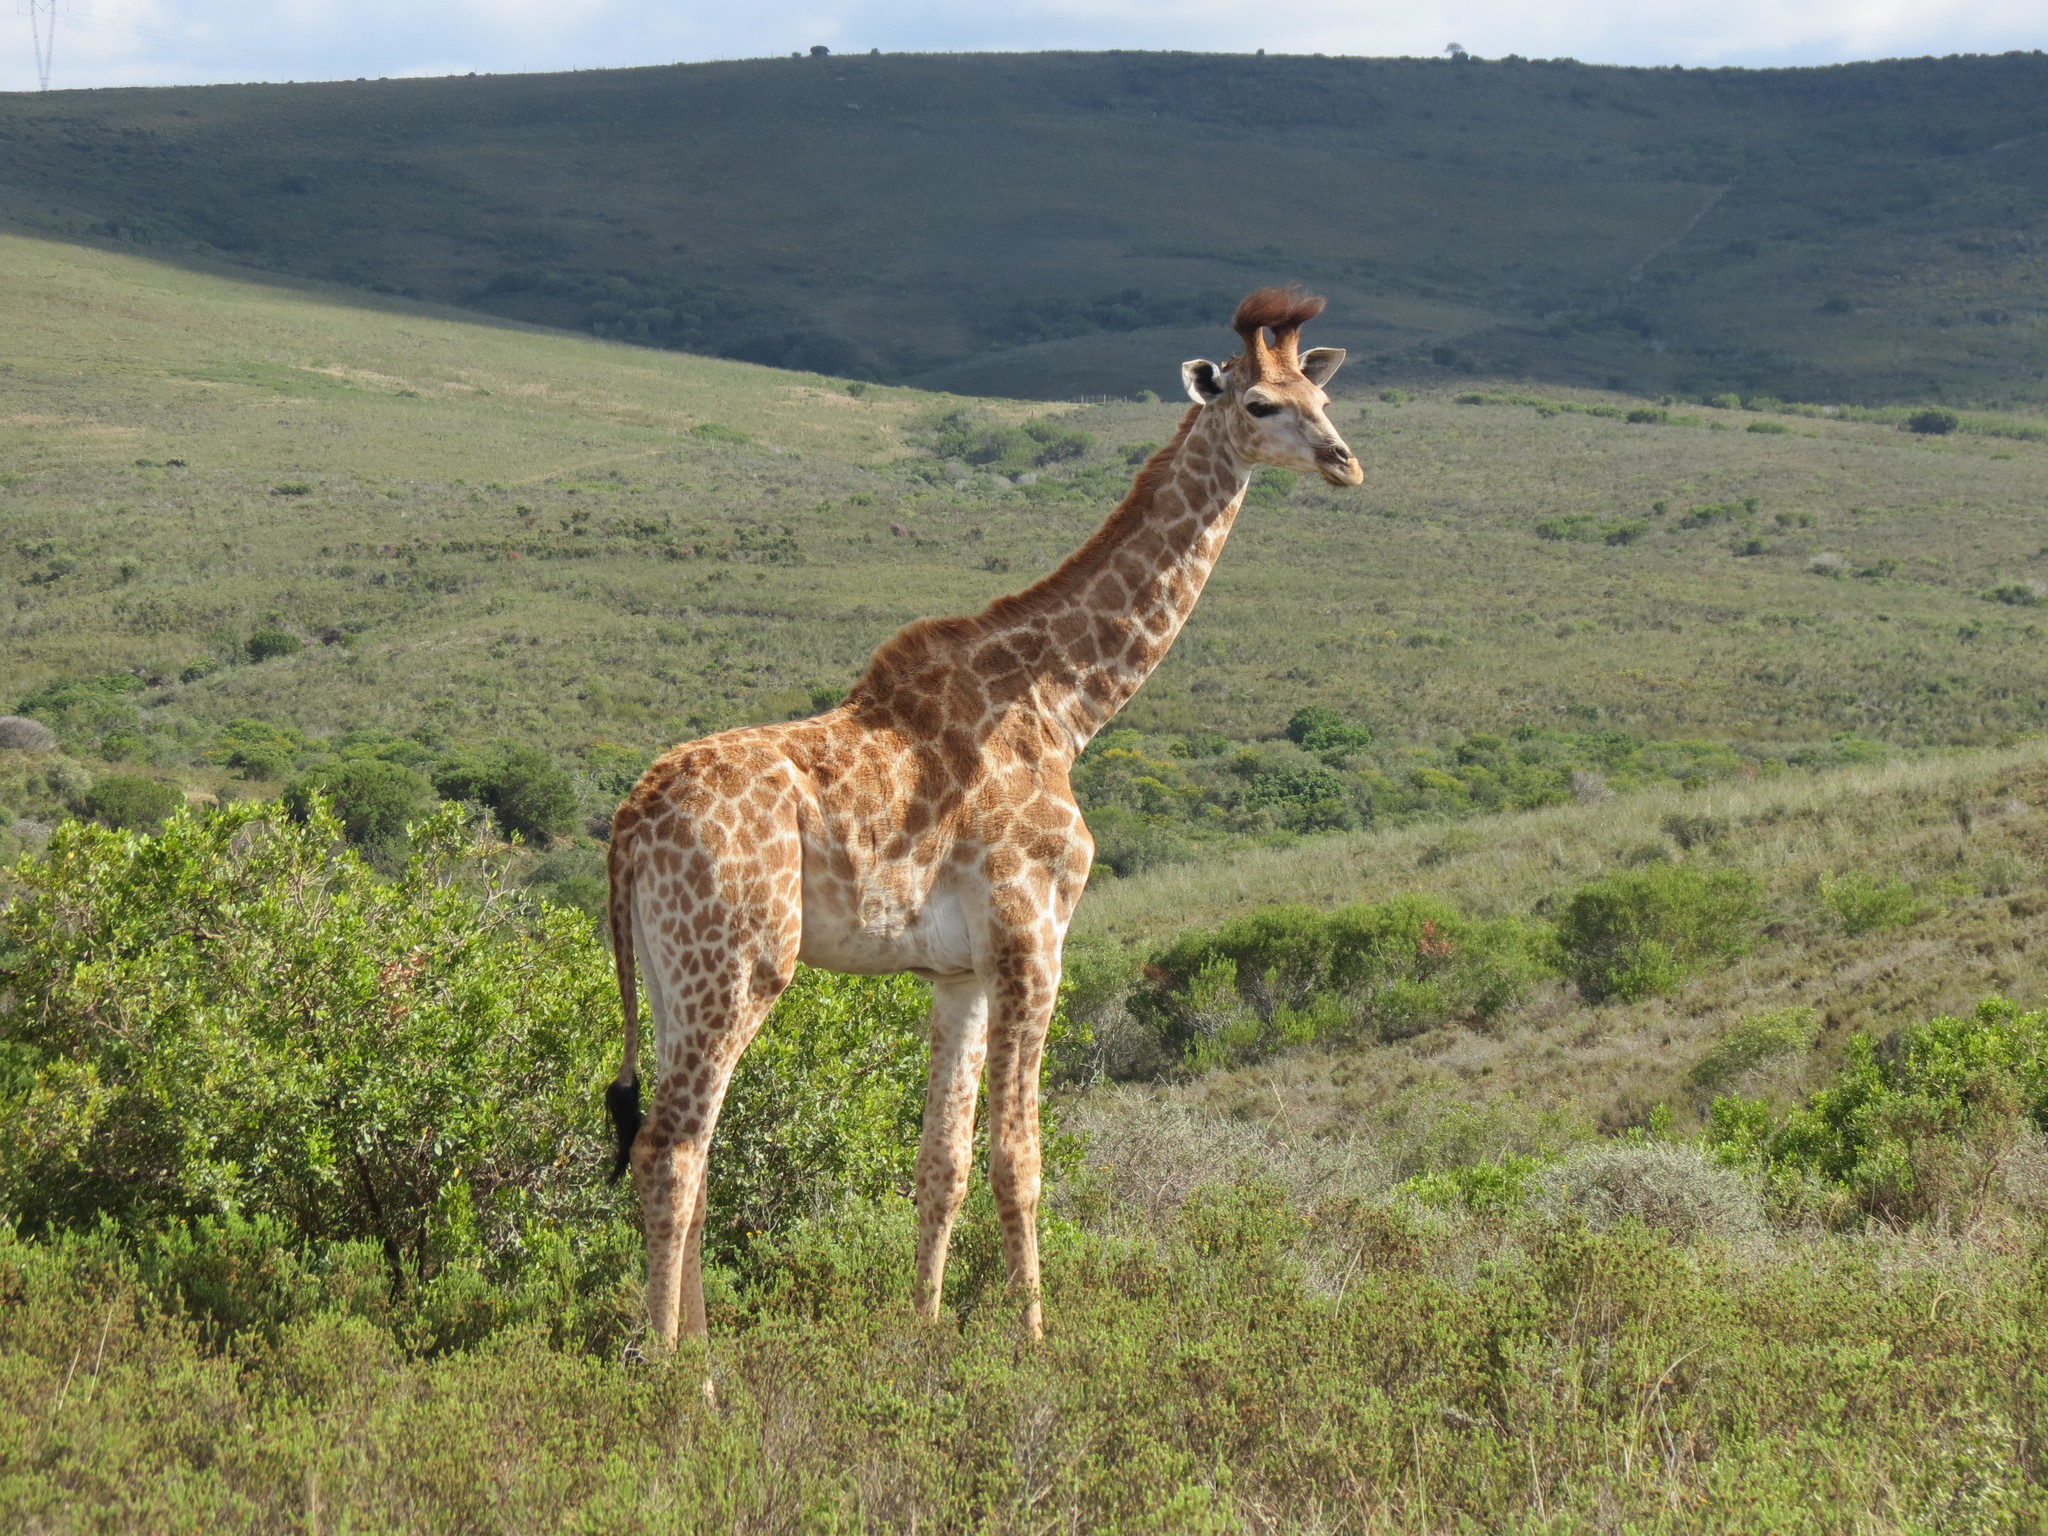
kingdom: Animalia
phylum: Chordata
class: Mammalia
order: Artiodactyla
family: Giraffidae
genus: Giraffa
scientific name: Giraffa giraffa
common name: Southern giraffe
